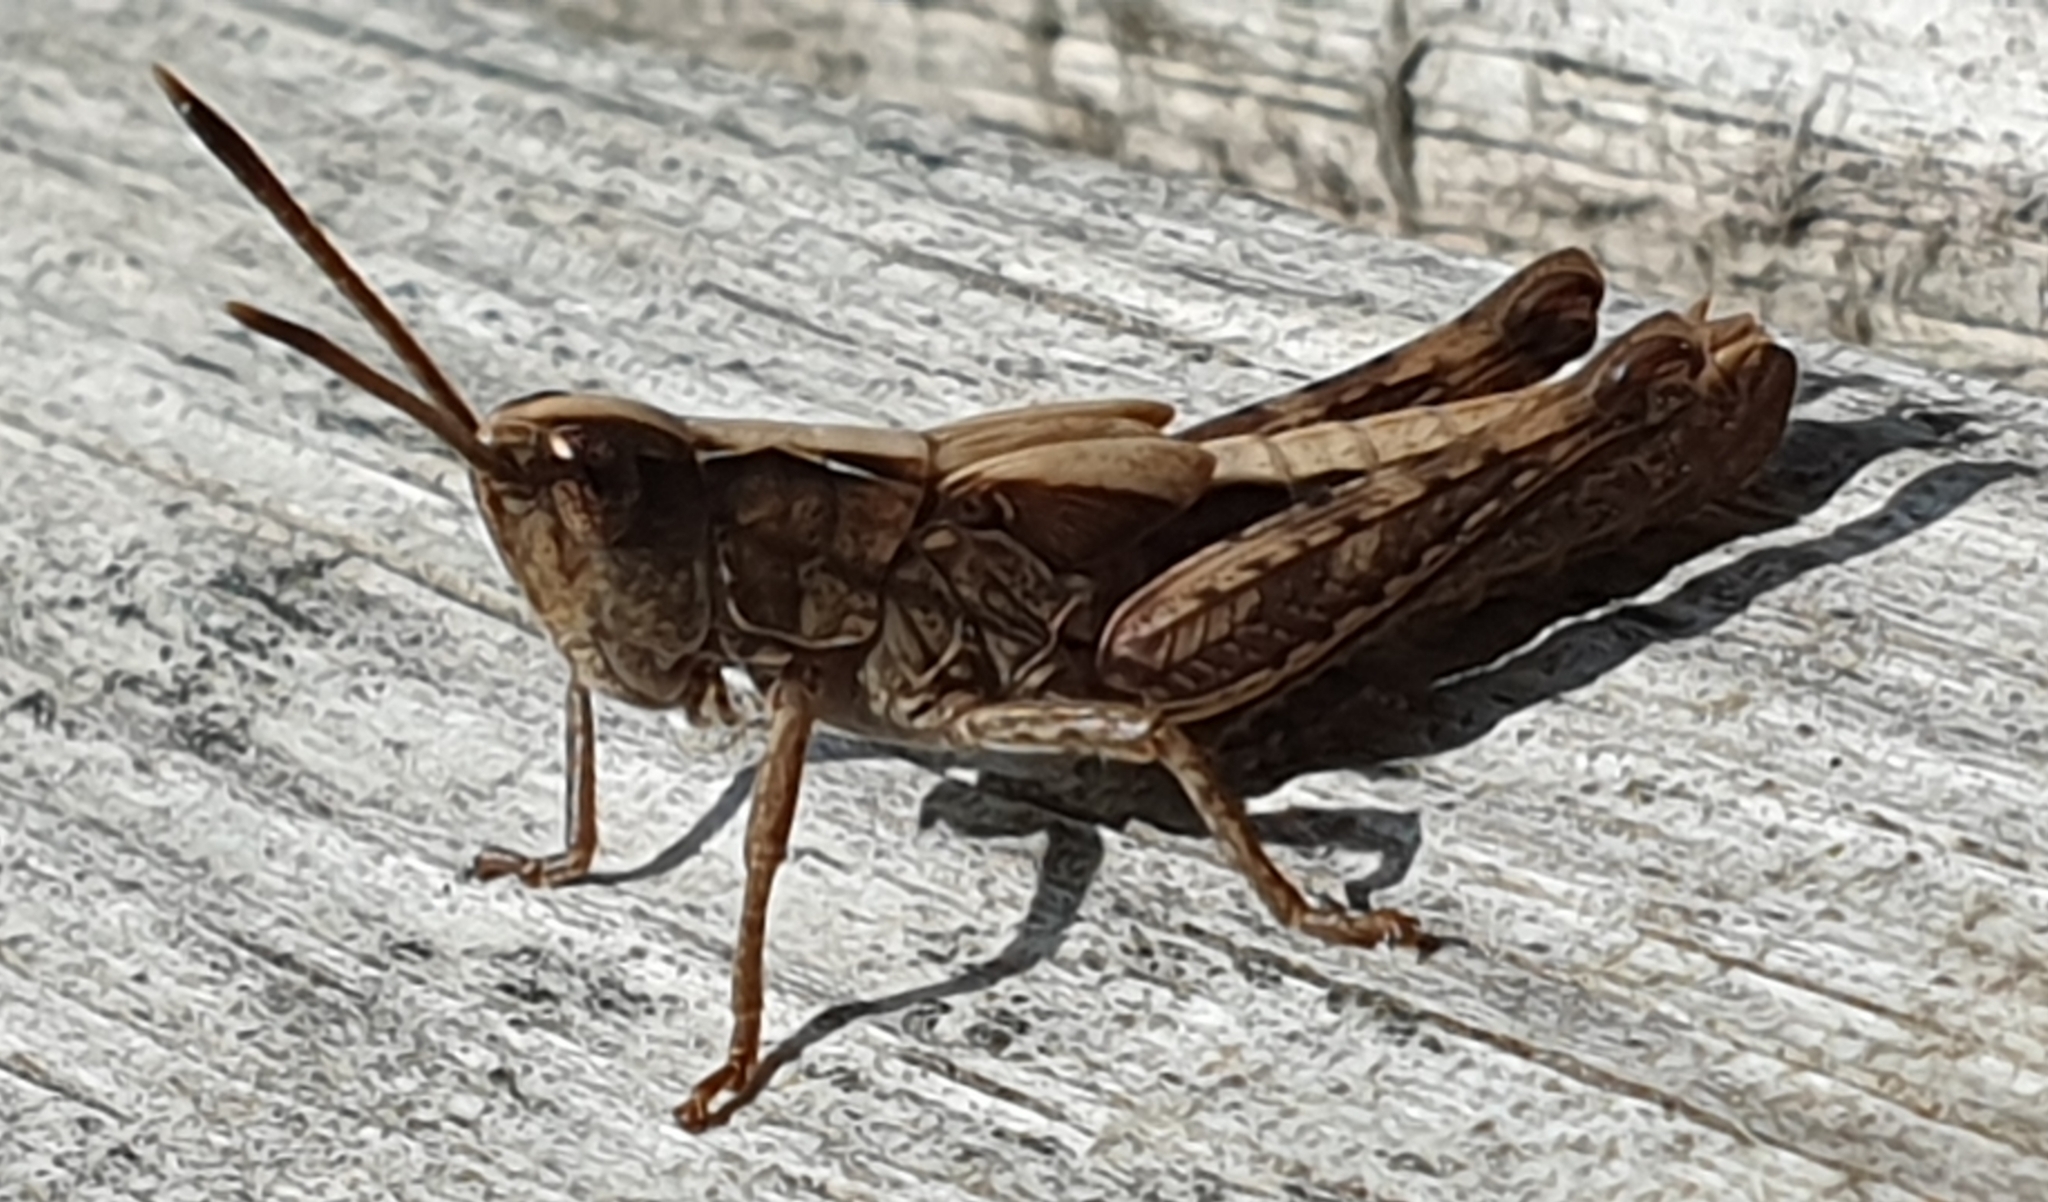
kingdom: Animalia
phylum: Arthropoda
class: Insecta
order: Orthoptera
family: Acrididae
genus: Gomphocerippus
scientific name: Gomphocerippus rufus
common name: Rufous grasshopper
